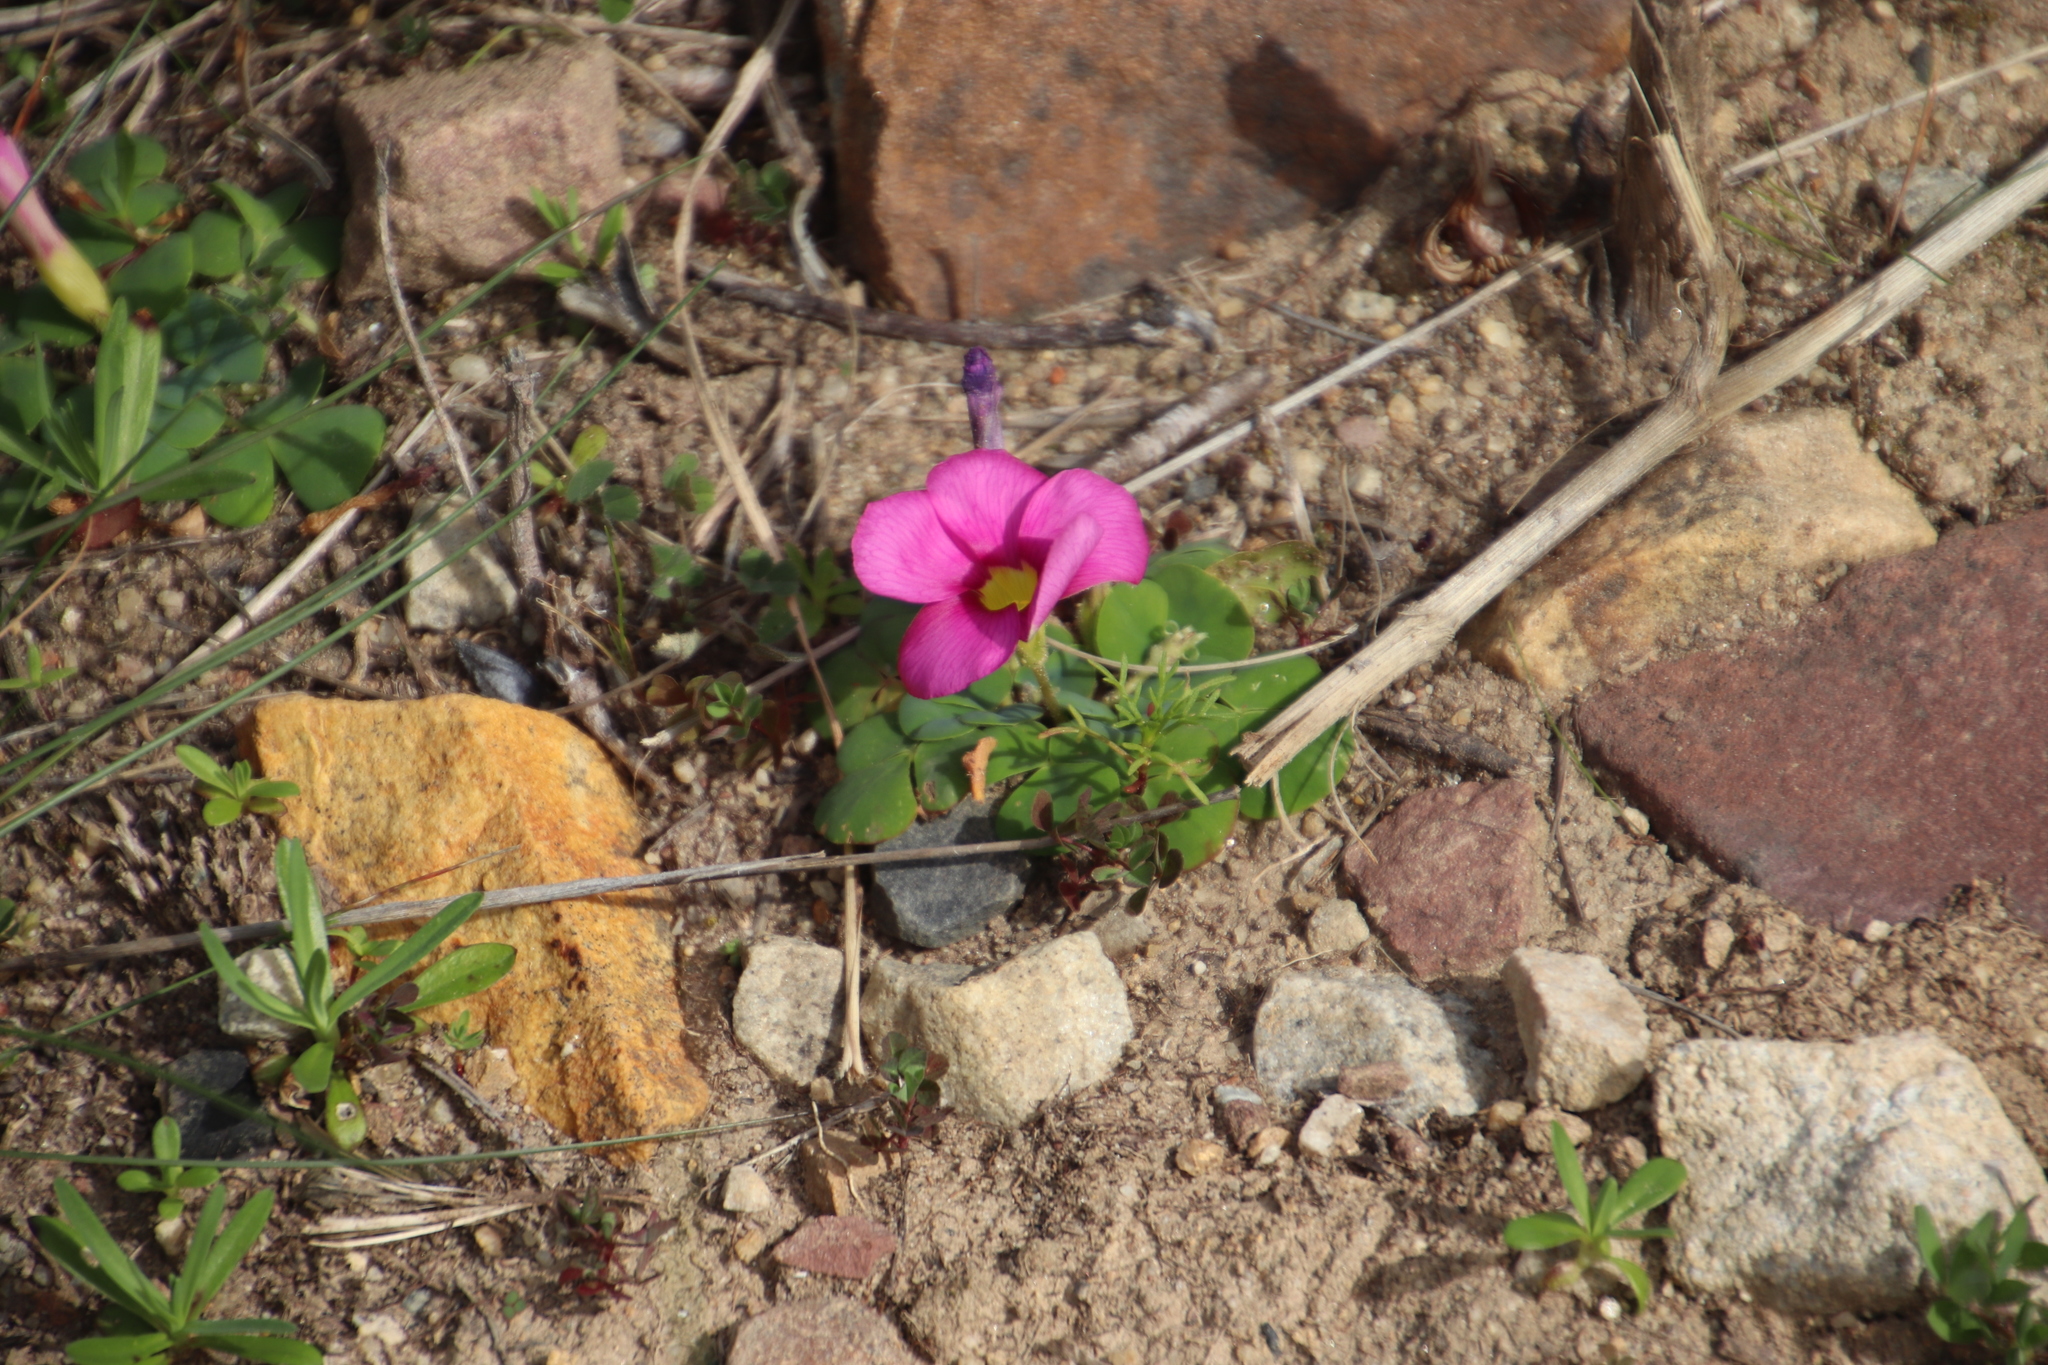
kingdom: Plantae
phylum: Tracheophyta
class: Magnoliopsida
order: Oxalidales
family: Oxalidaceae
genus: Oxalis
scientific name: Oxalis purpurea
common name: Purple woodsorrel
